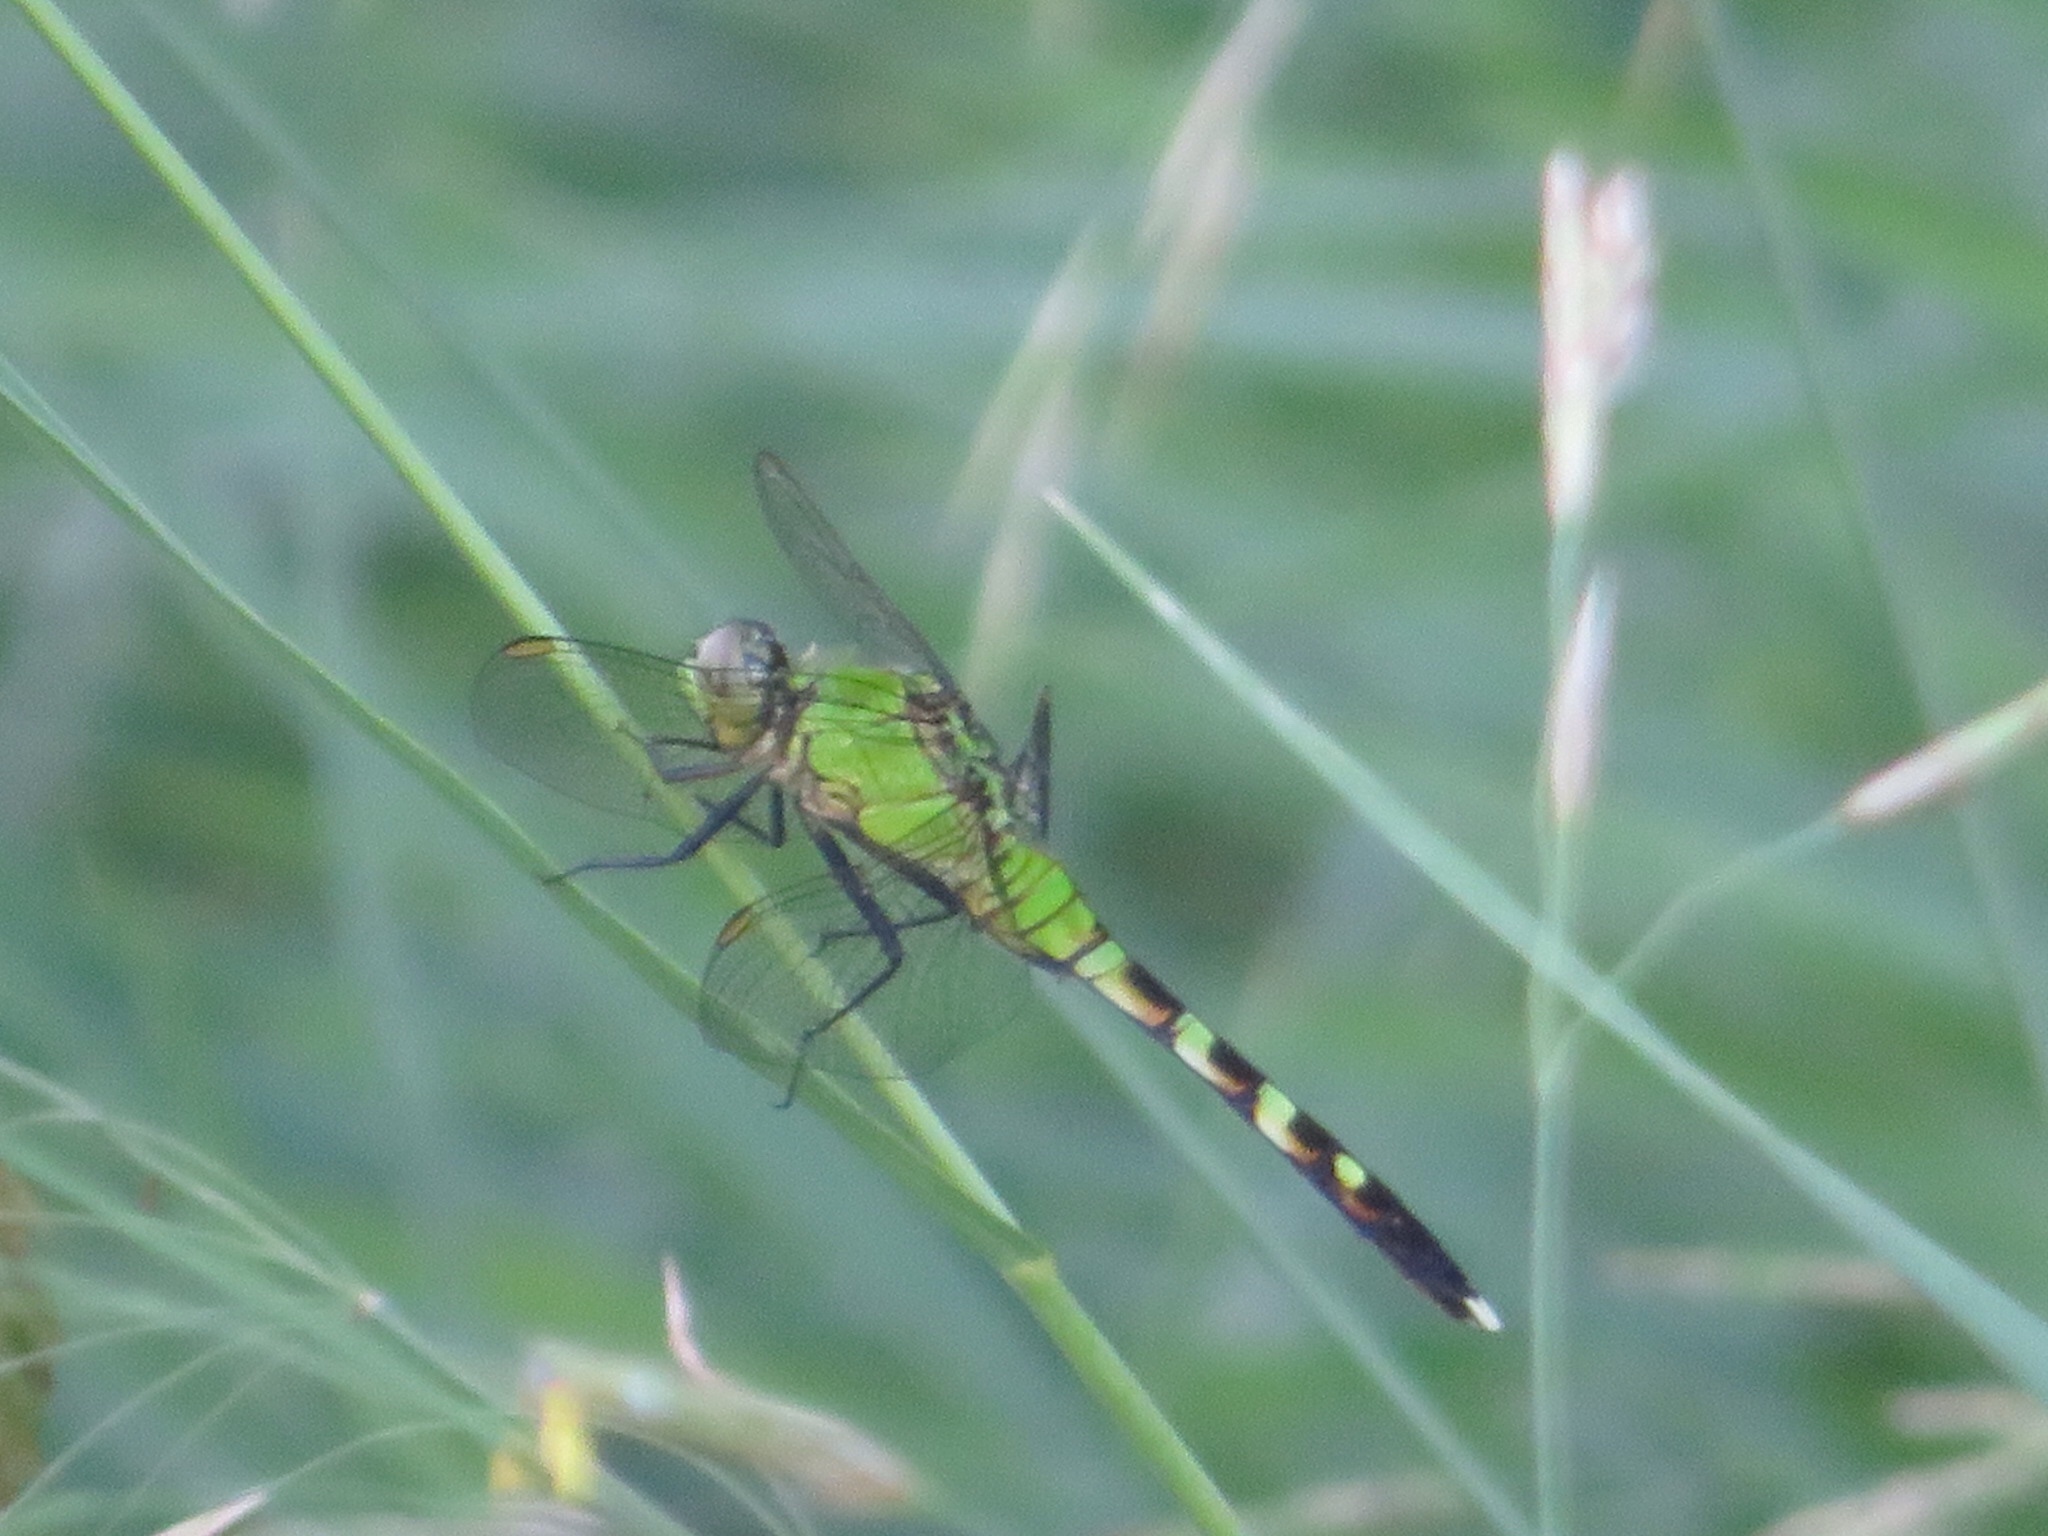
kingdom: Animalia
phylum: Arthropoda
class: Insecta
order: Odonata
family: Libellulidae
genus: Erythemis
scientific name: Erythemis simplicicollis
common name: Eastern pondhawk
